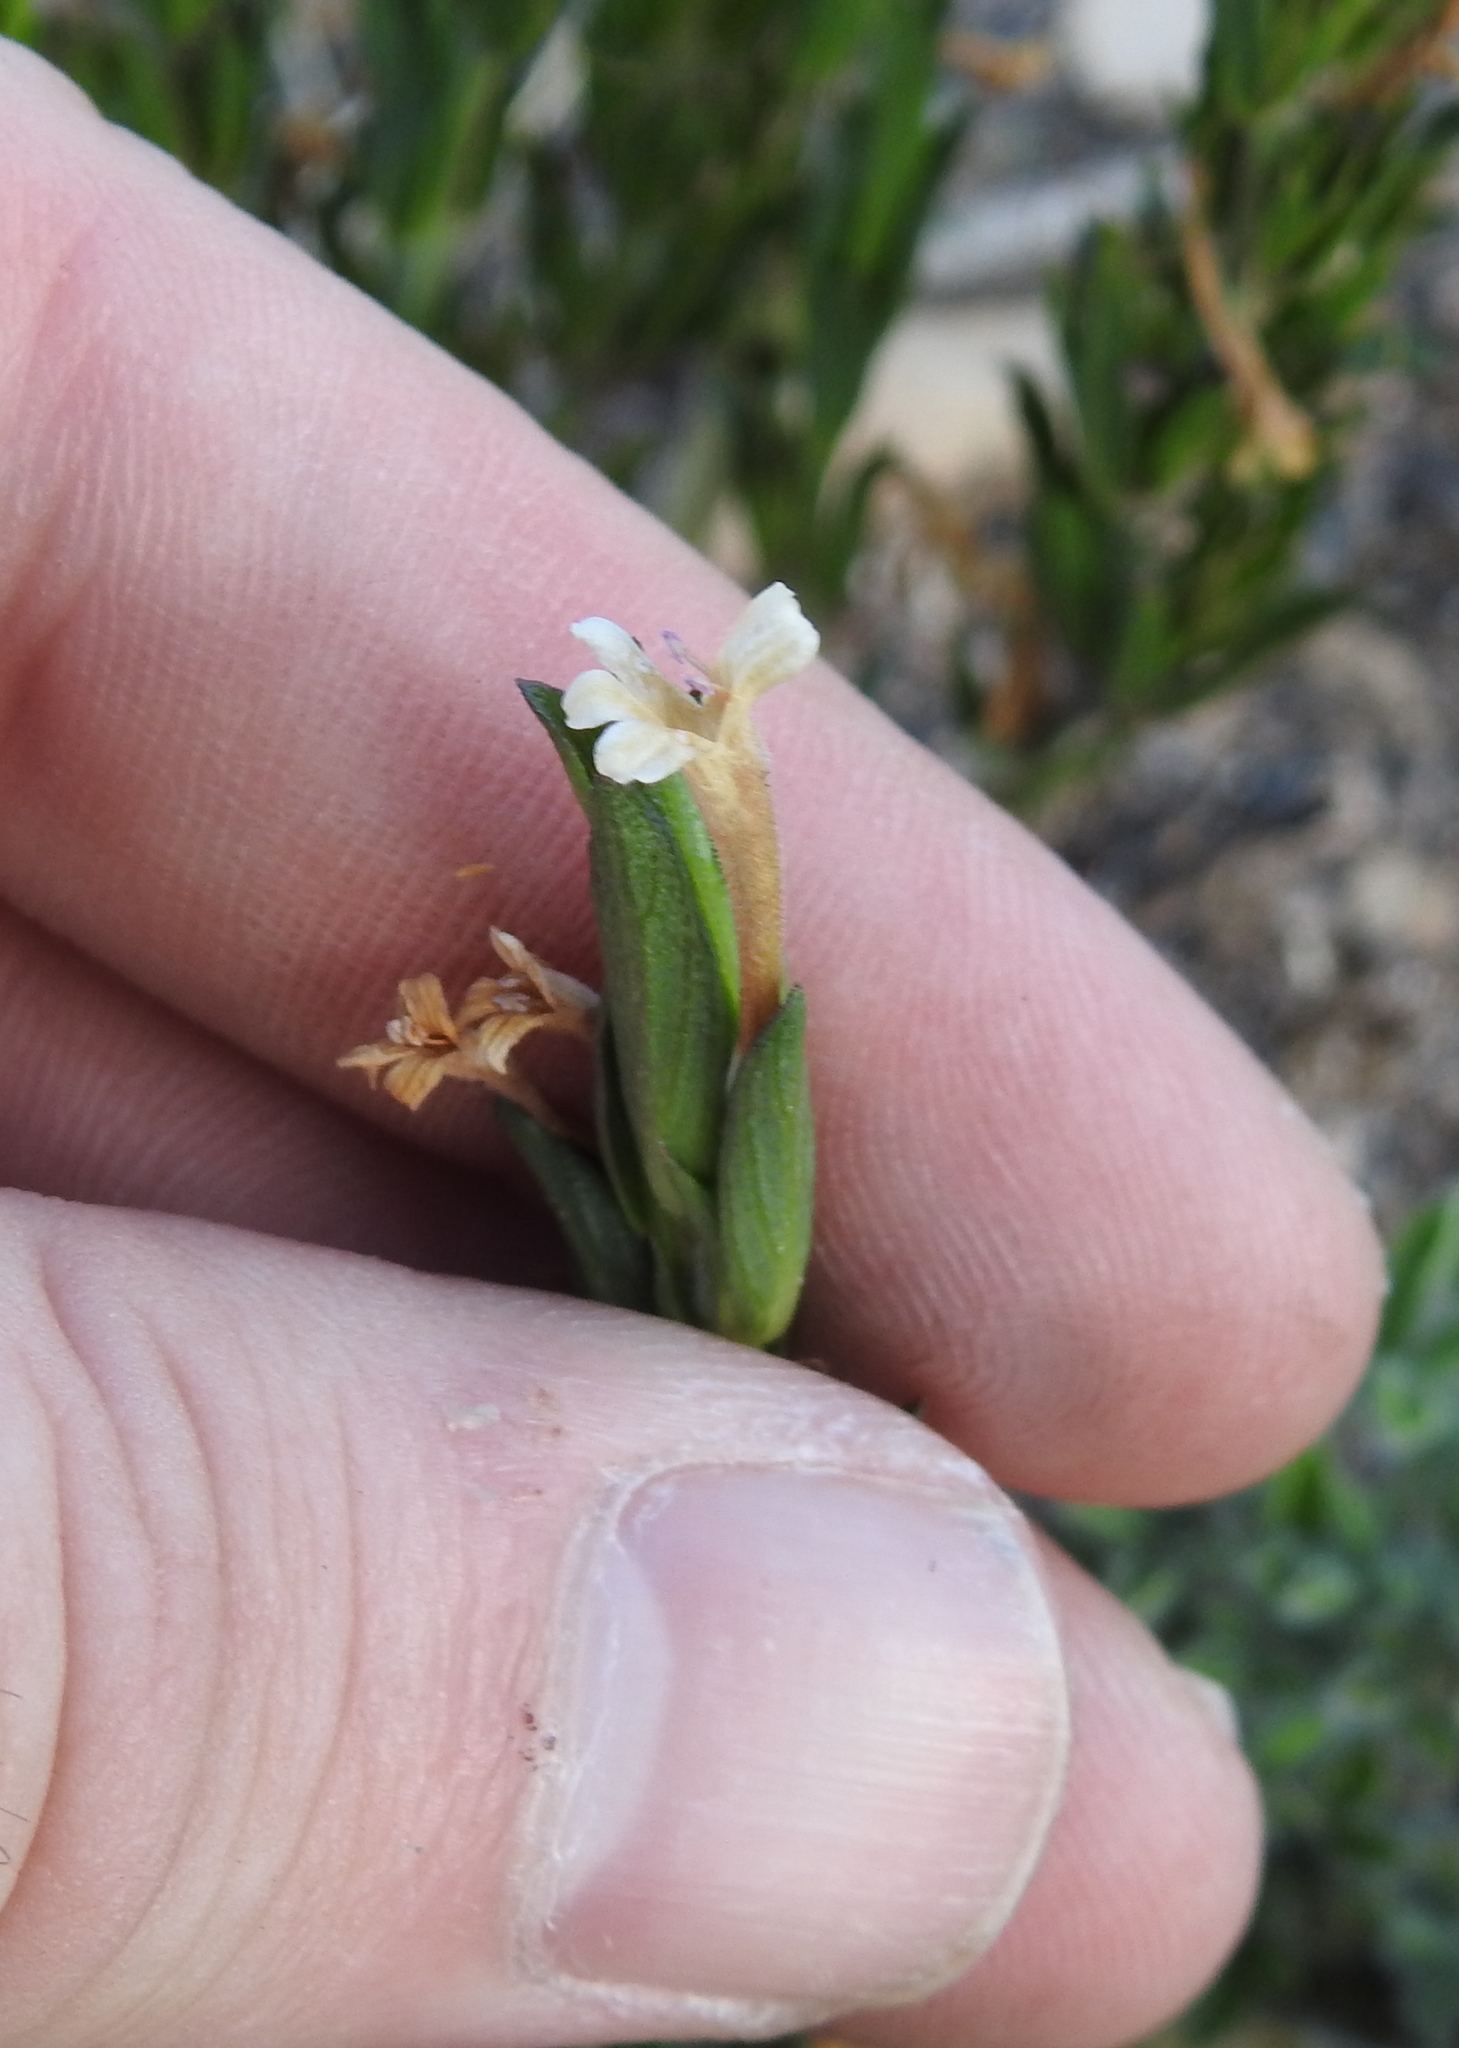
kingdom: Plantae
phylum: Tracheophyta
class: Magnoliopsida
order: Lamiales
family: Acanthaceae
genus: Dyschoriste
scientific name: Dyschoriste setigera
